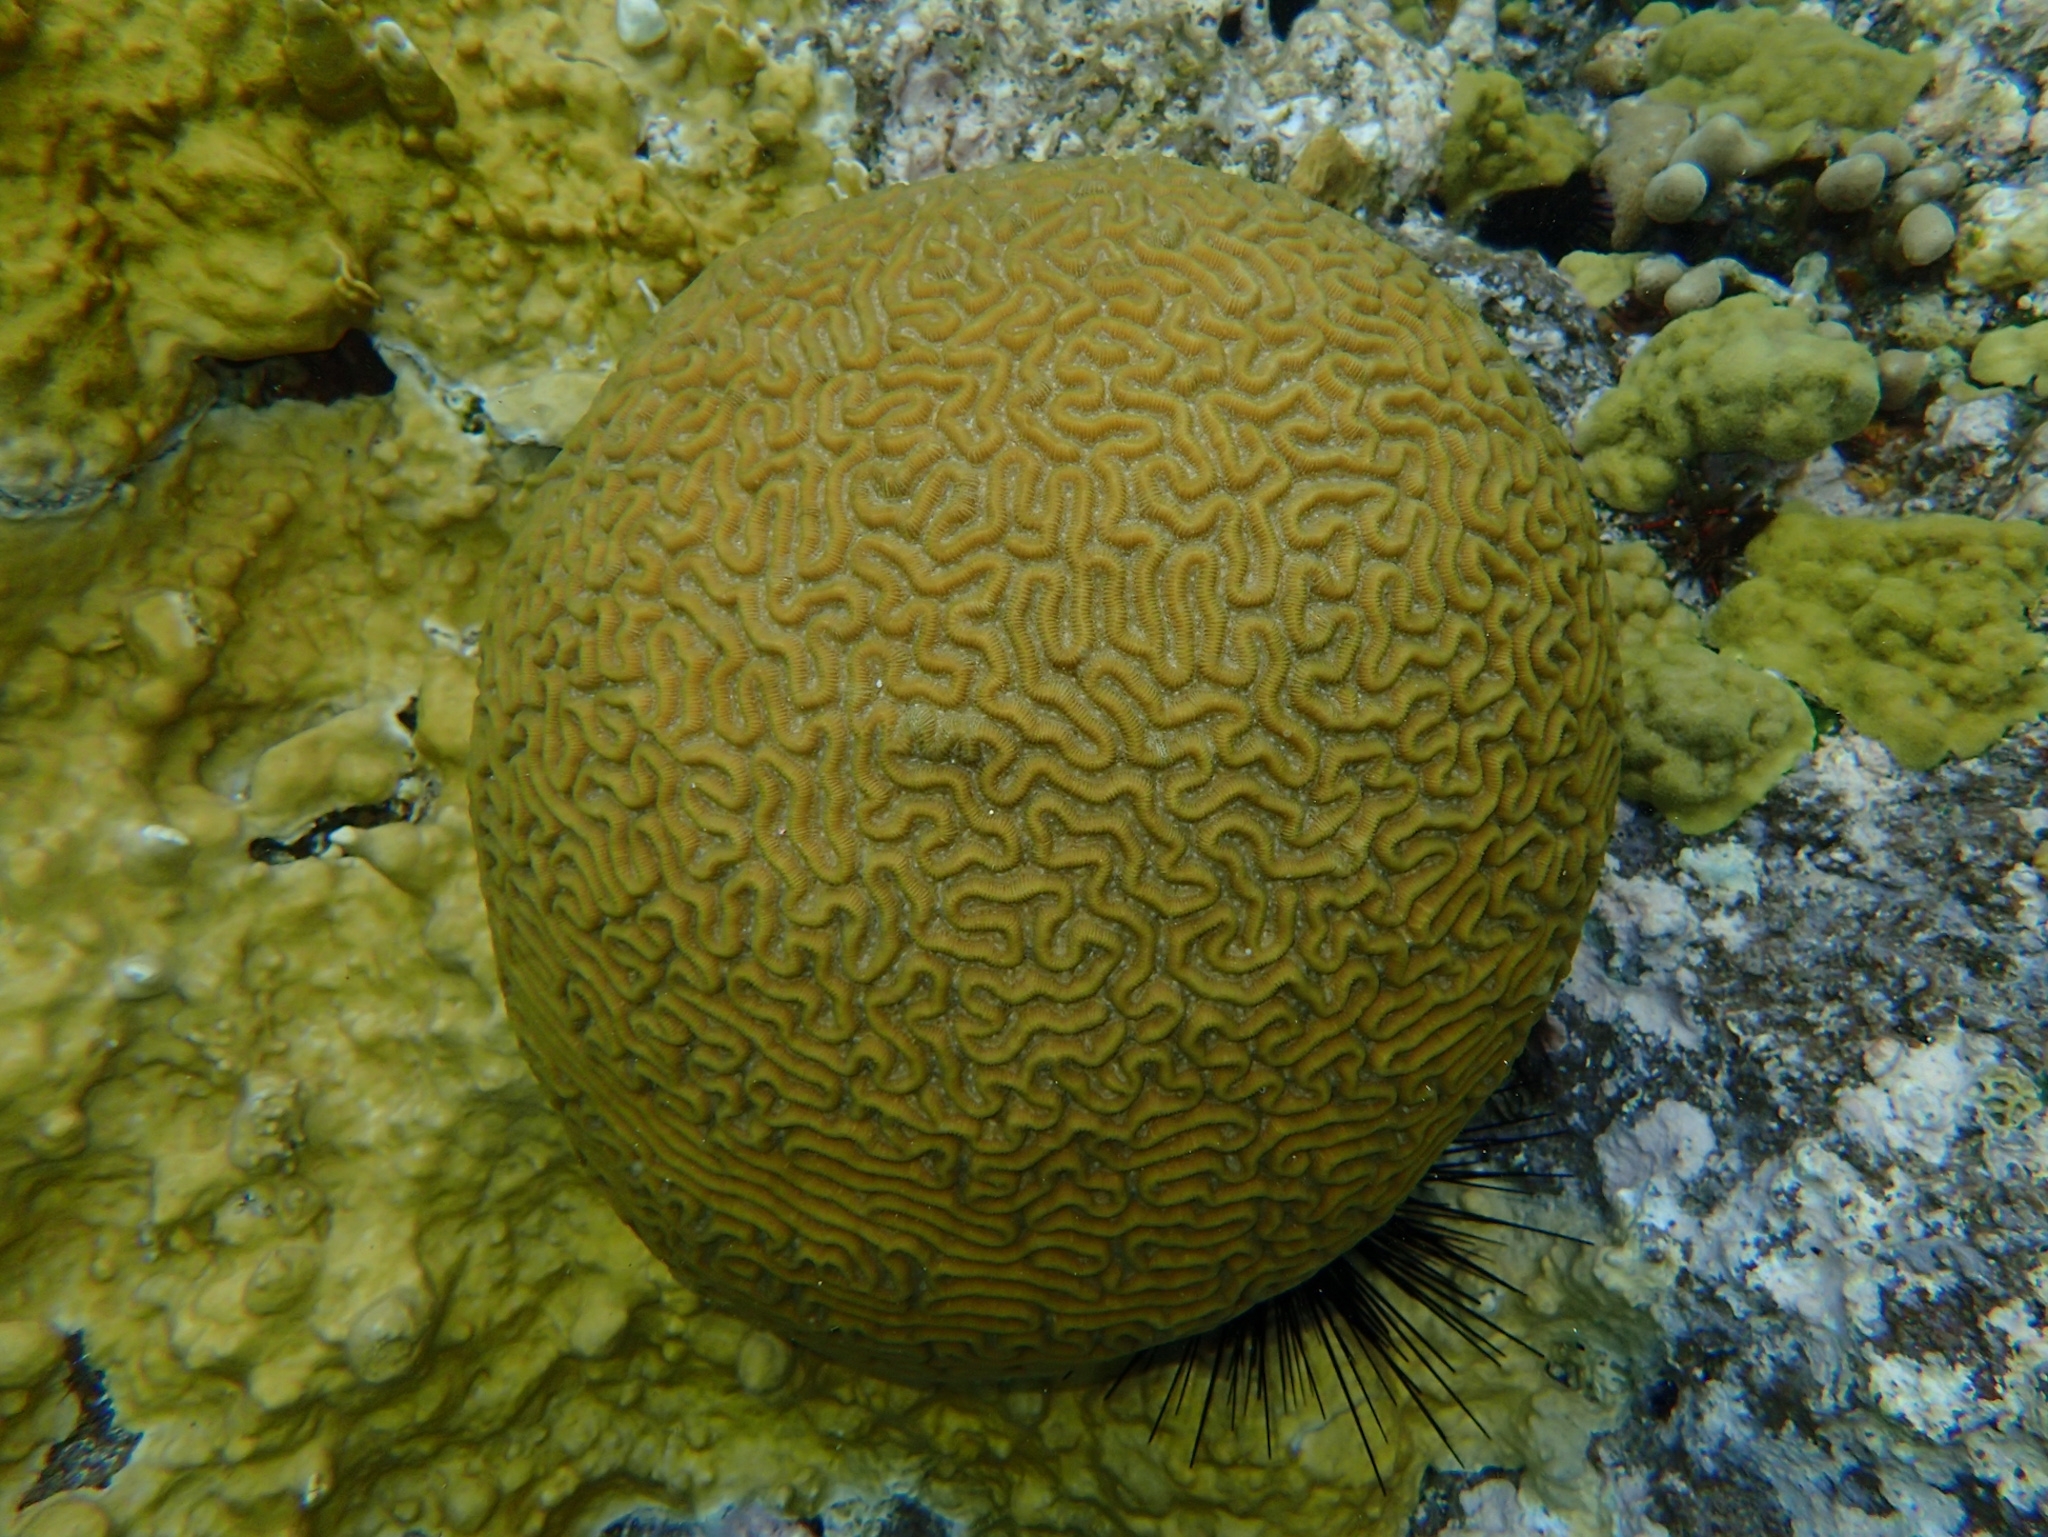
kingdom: Animalia
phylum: Cnidaria
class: Anthozoa
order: Scleractinia
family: Faviidae
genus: Pseudodiploria
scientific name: Pseudodiploria strigosa
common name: Symmetrical brain coral
